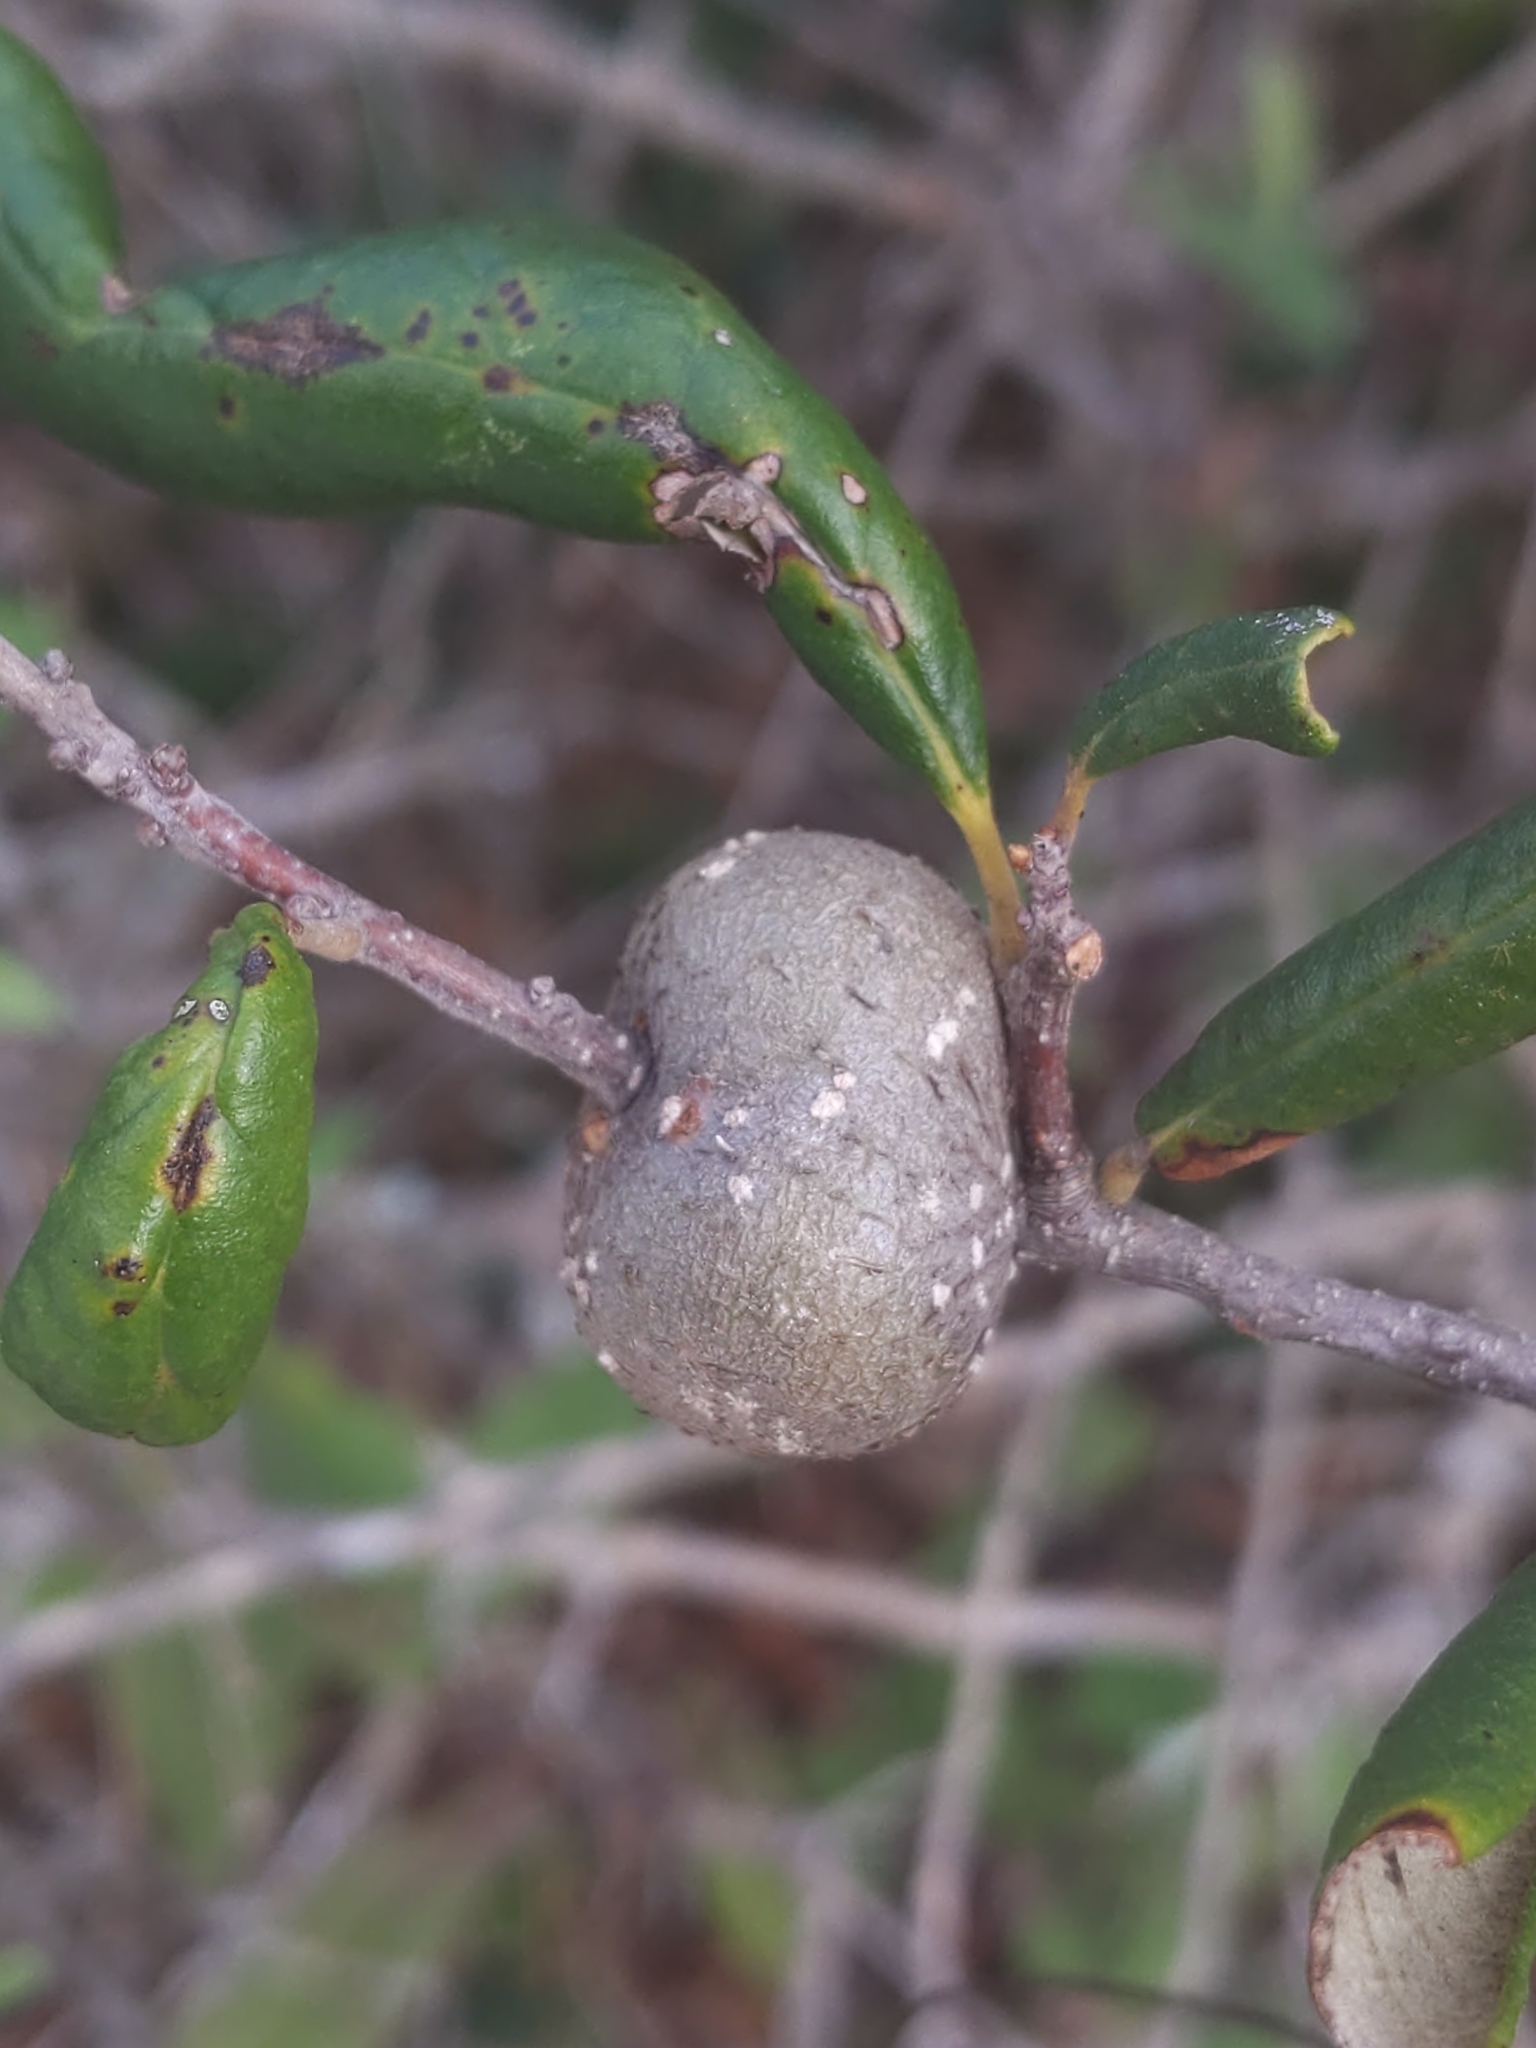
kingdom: Animalia
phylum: Arthropoda
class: Insecta
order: Hymenoptera
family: Cynipidae
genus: Callirhytis
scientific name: Callirhytis
